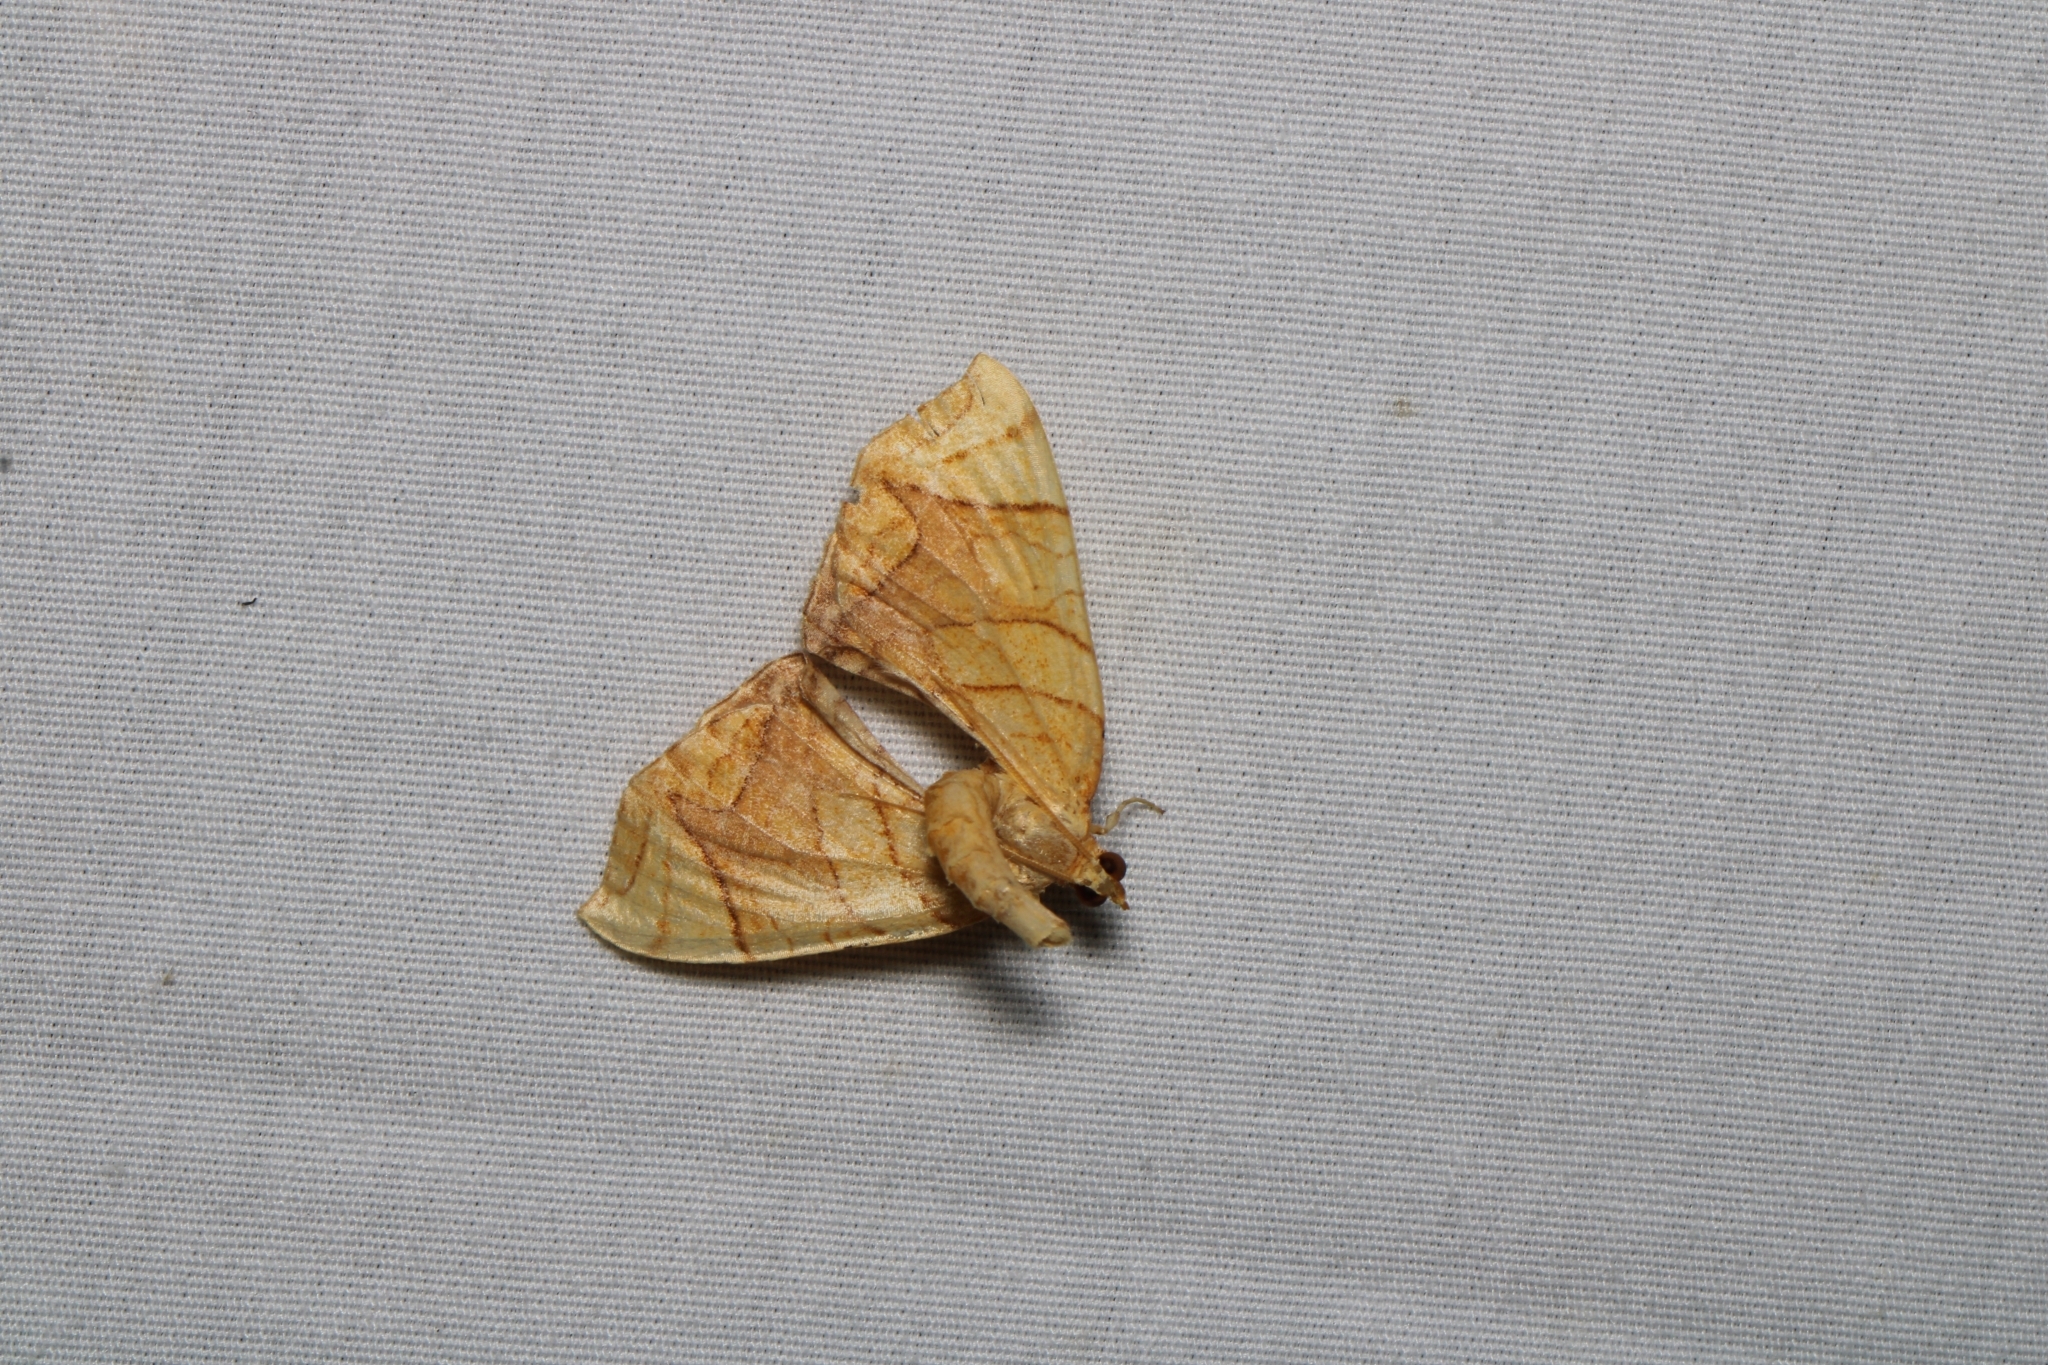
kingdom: Animalia
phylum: Arthropoda
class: Insecta
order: Lepidoptera
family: Geometridae
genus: Eulithis
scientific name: Eulithis diversilineata
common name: Grapevine looper
